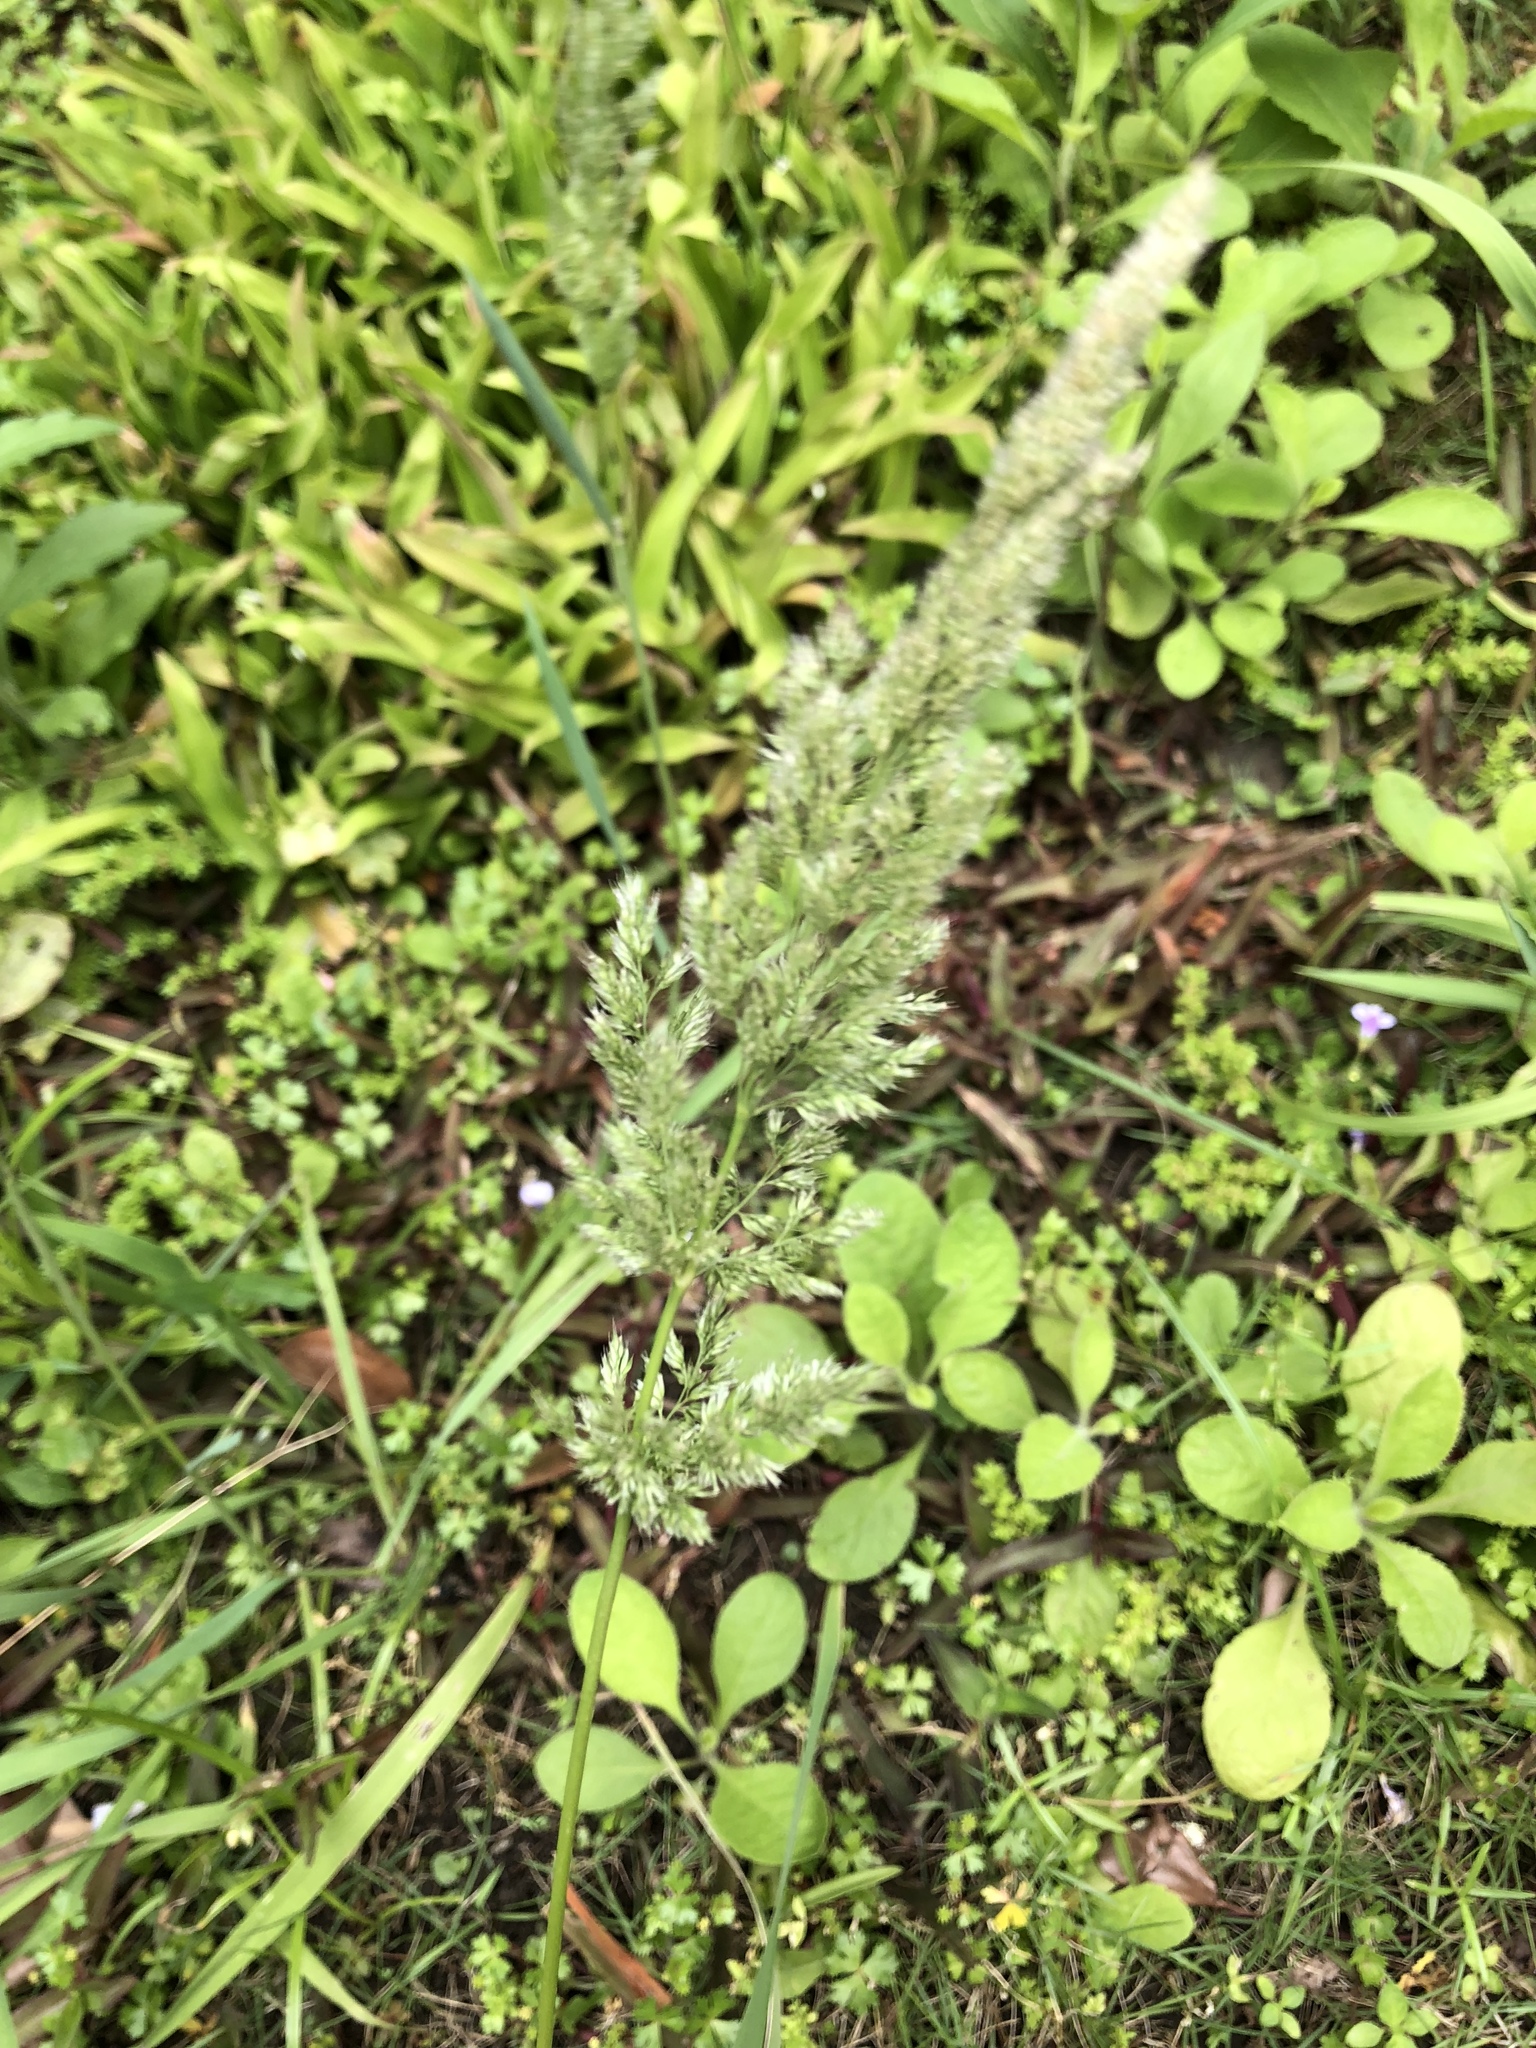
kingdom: Plantae
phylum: Tracheophyta
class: Liliopsida
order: Poales
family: Poaceae
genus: Polypogon
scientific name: Polypogon fugax
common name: Asia minor bluegrass
